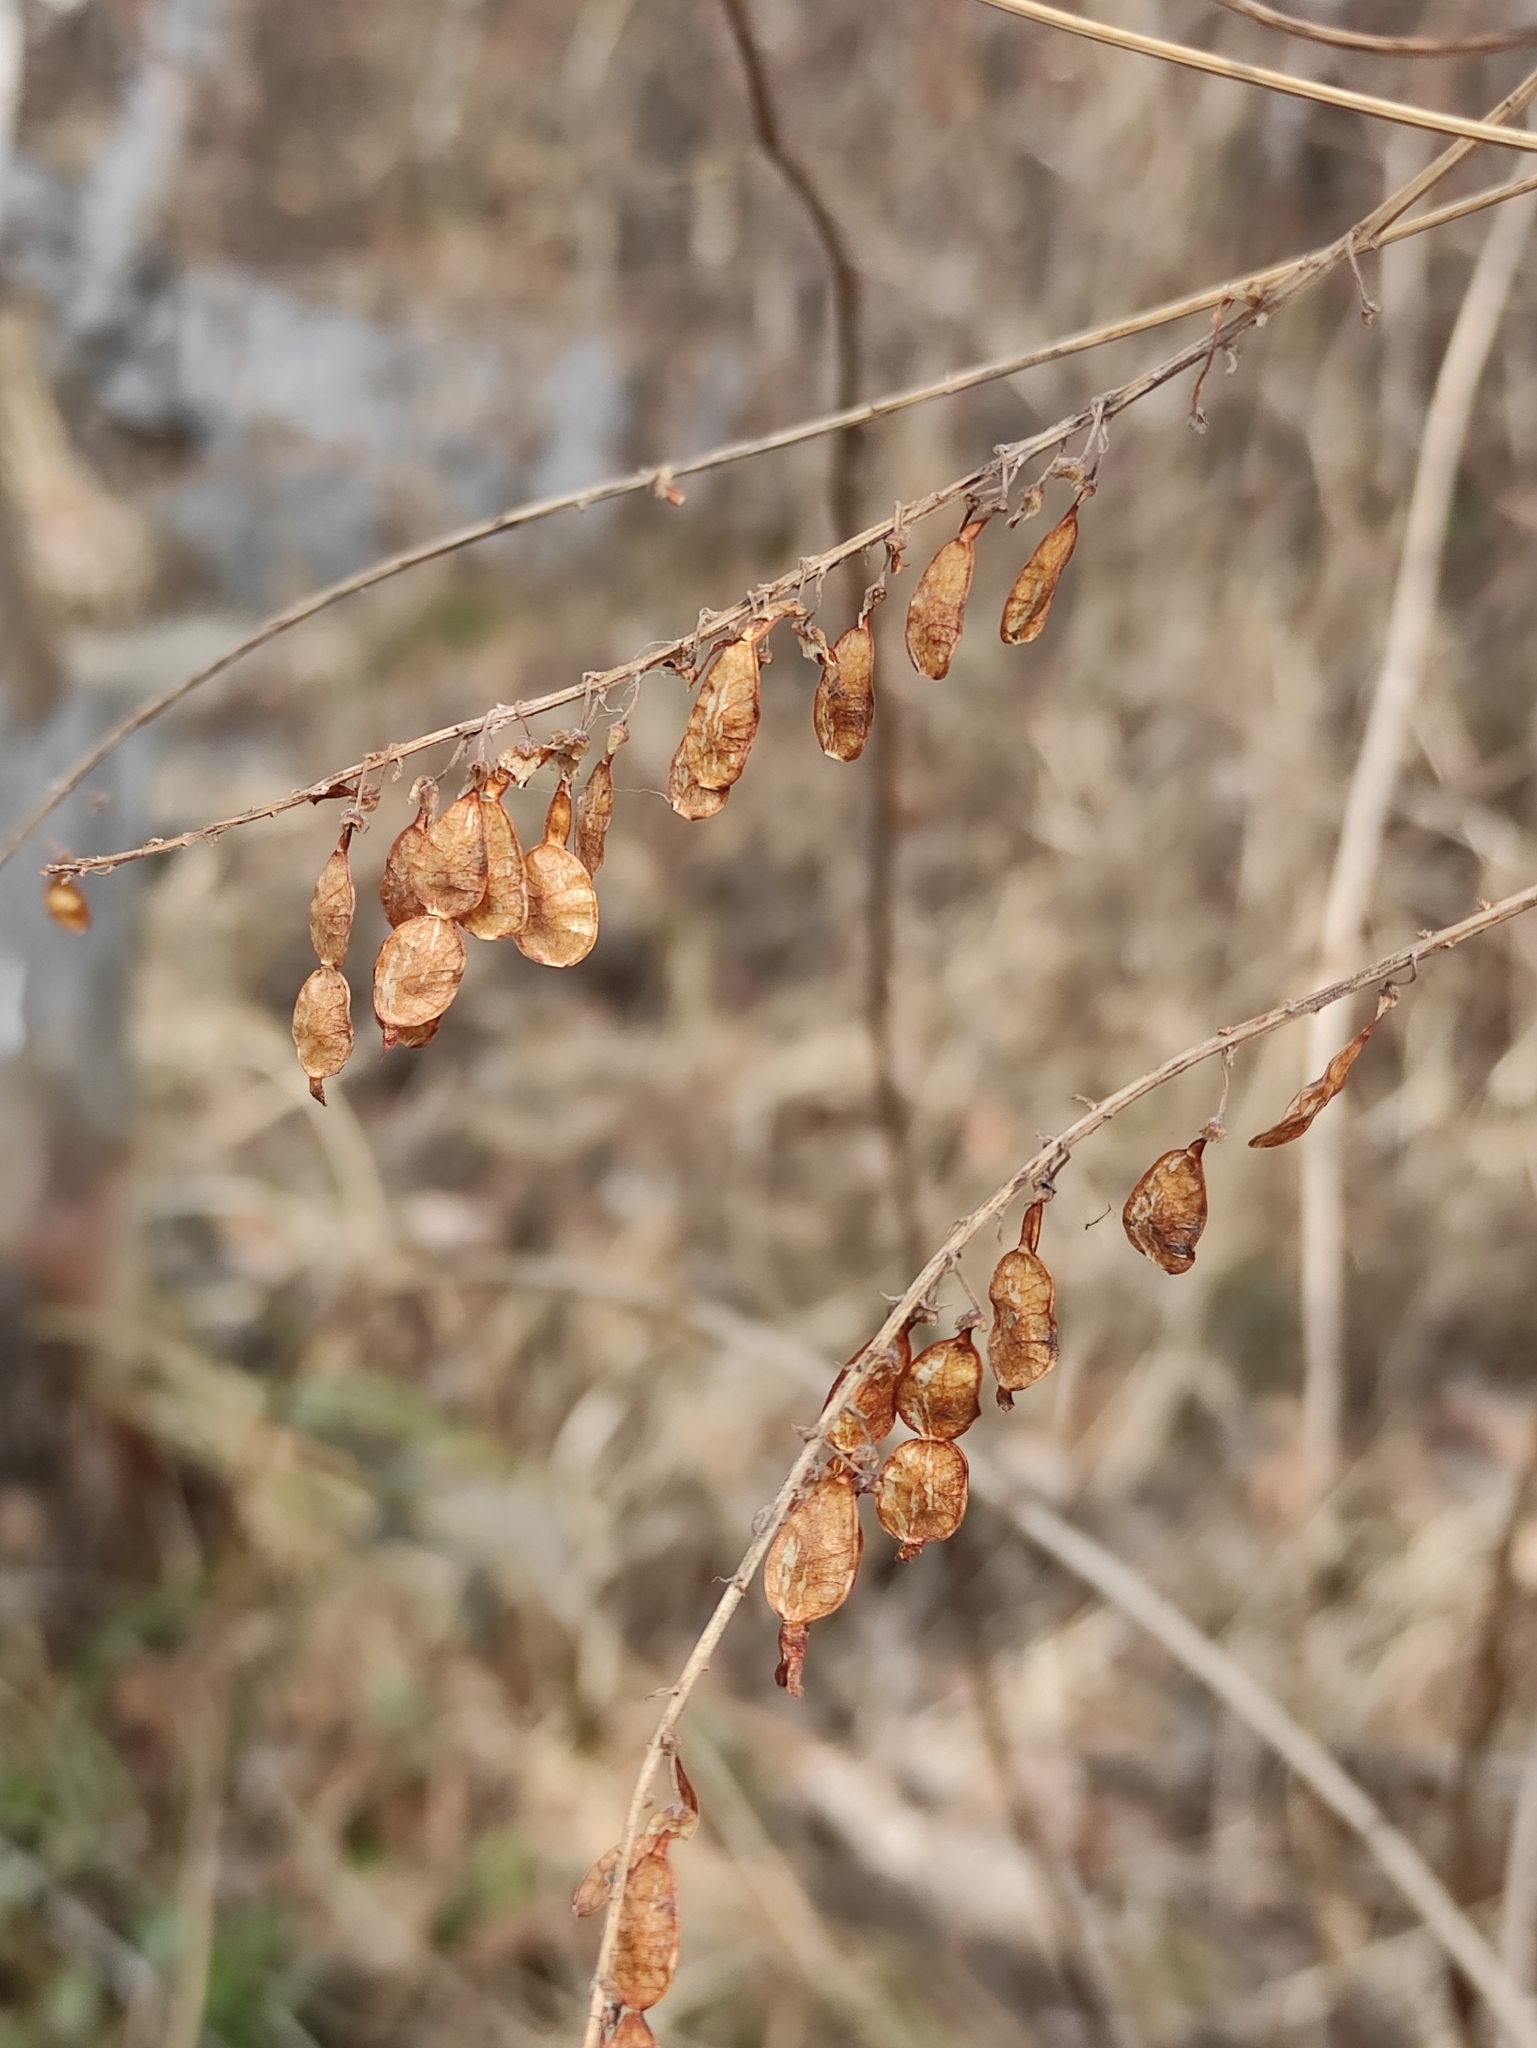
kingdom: Plantae
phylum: Tracheophyta
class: Magnoliopsida
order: Fabales
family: Fabaceae
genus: Hedysarum
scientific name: Hedysarum alpinum
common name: Alpine sweet-vetch
